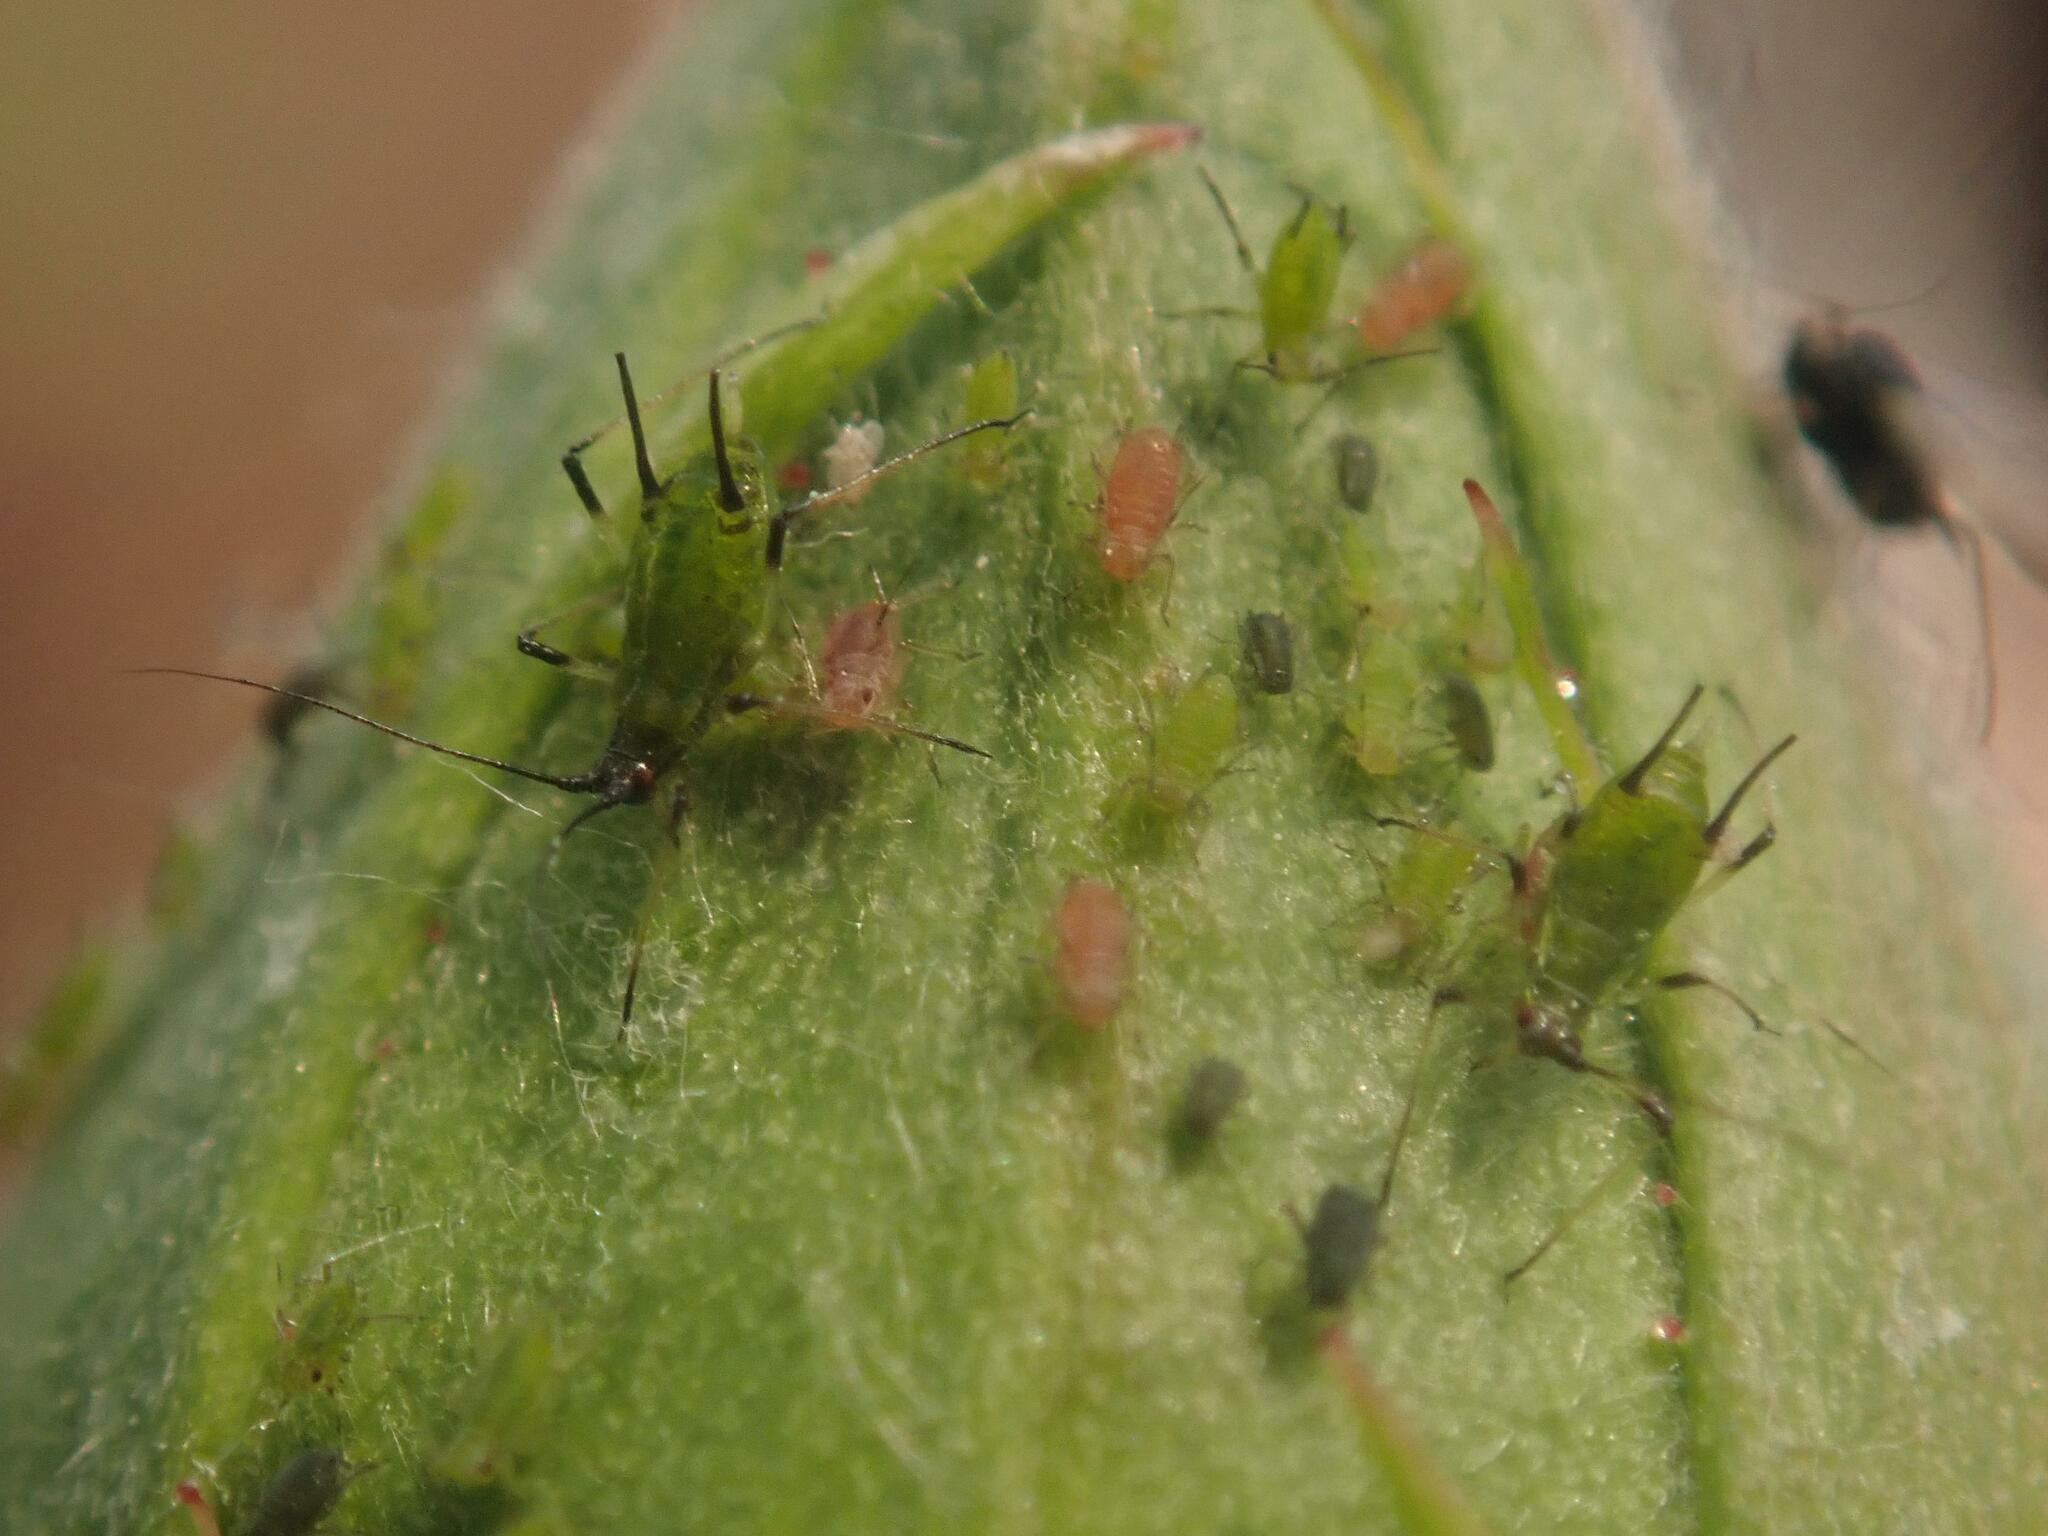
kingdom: Animalia
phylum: Arthropoda
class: Insecta
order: Hemiptera
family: Aphididae
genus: Macrosiphum
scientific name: Macrosiphum rosae
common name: Rose aphid
